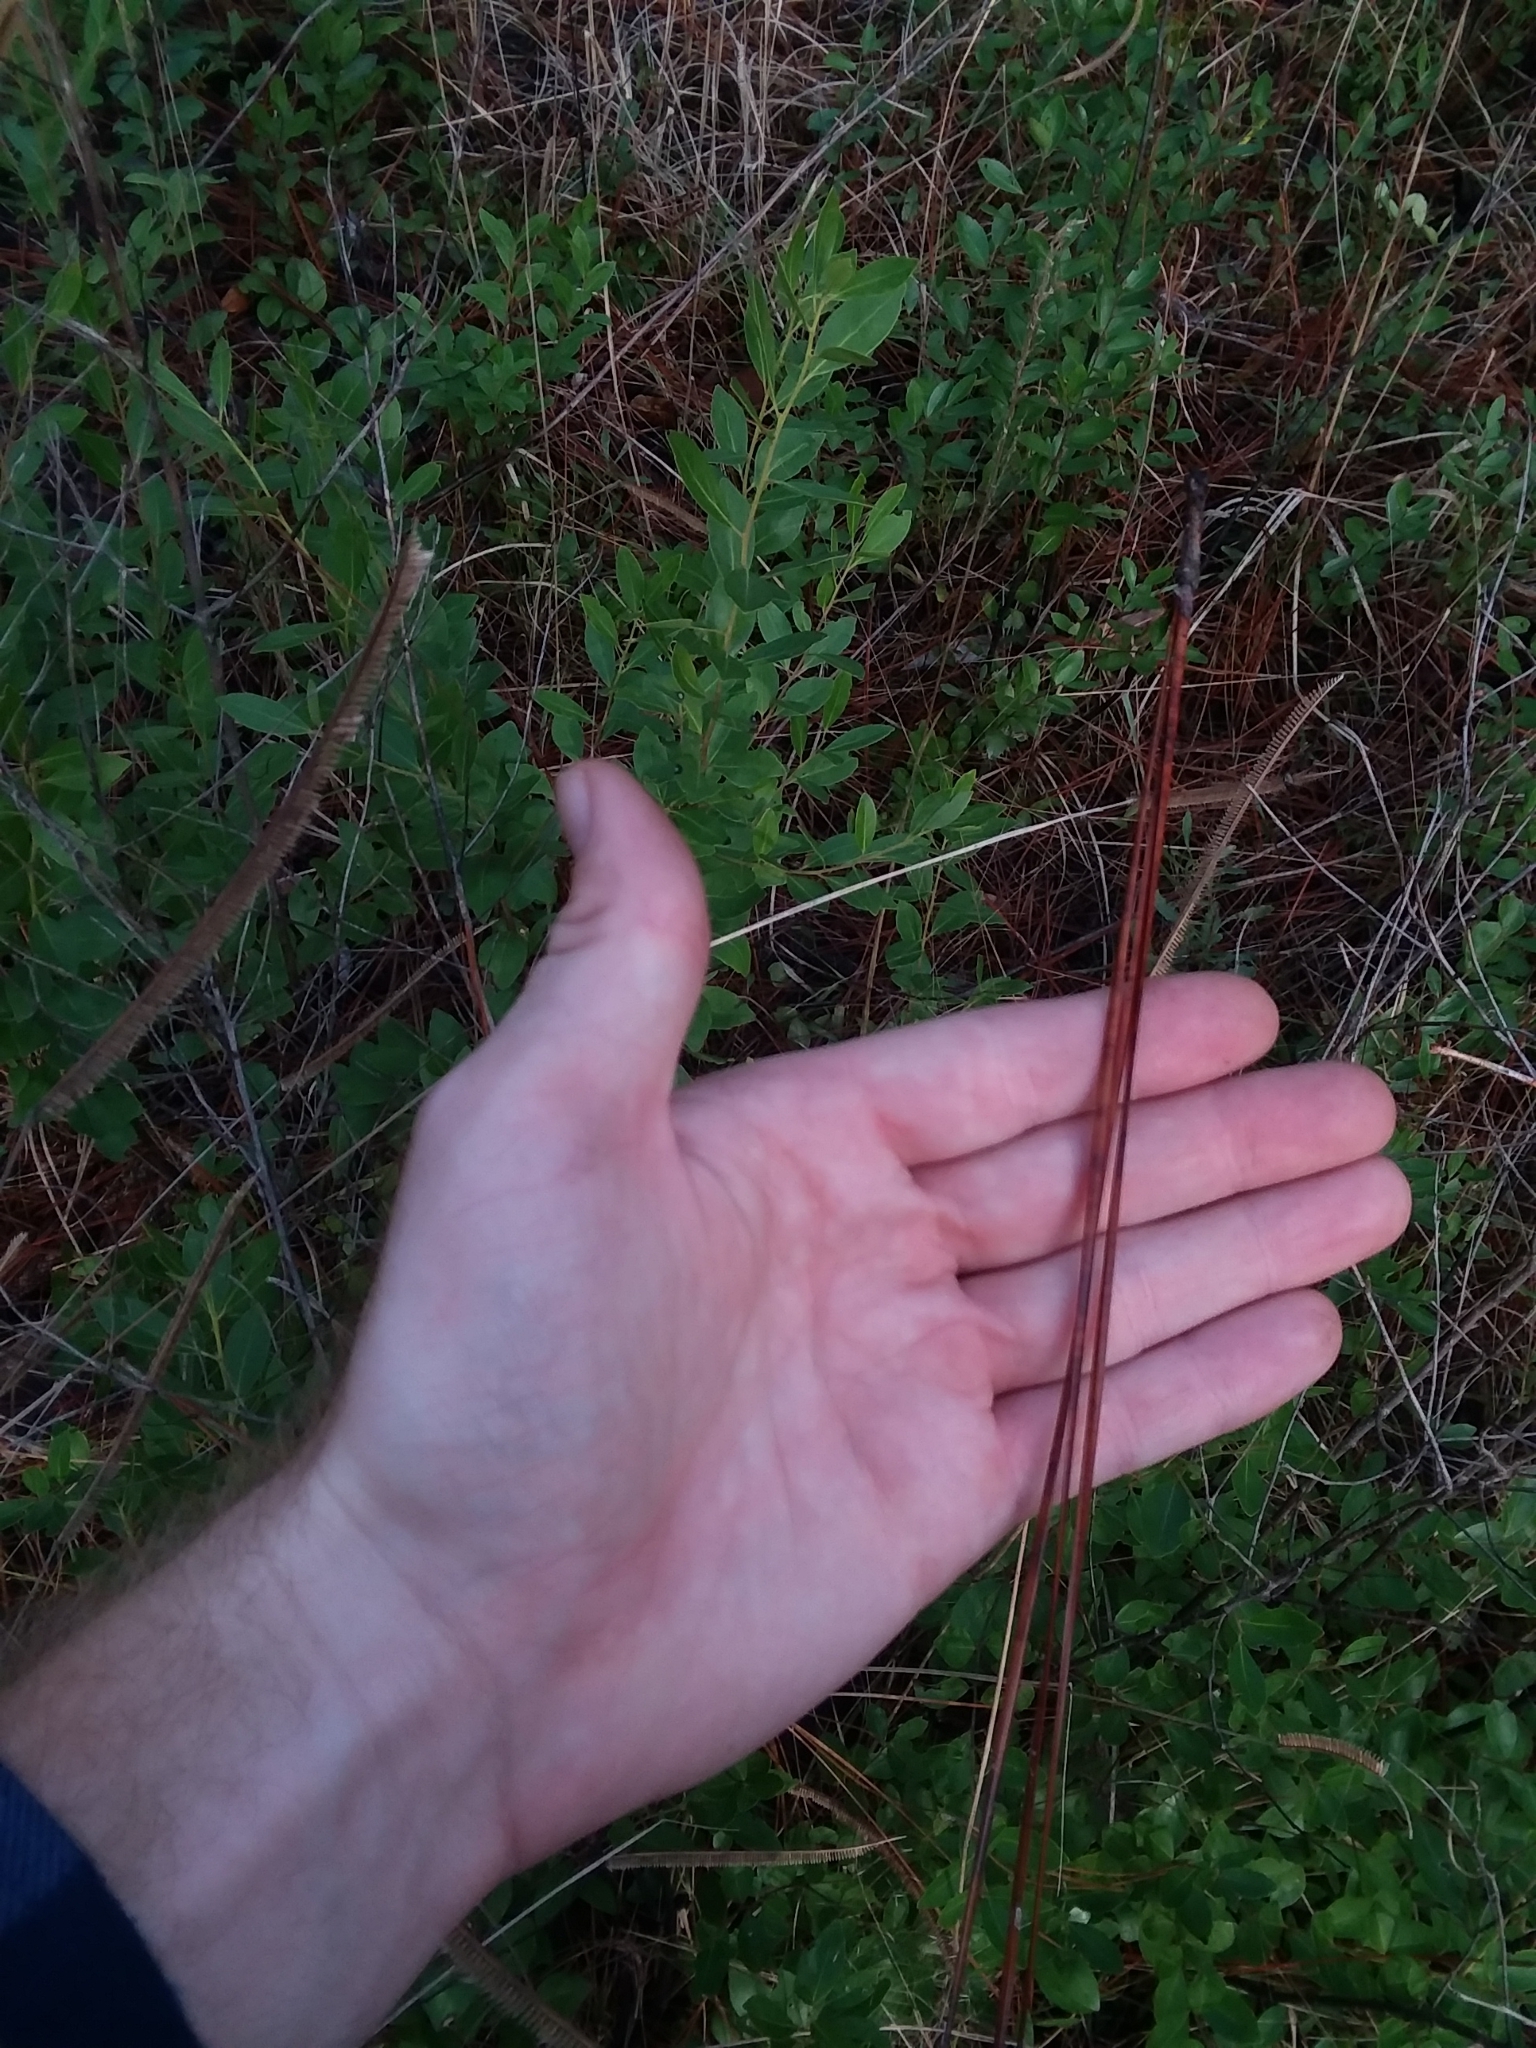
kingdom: Plantae
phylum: Tracheophyta
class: Pinopsida
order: Pinales
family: Pinaceae
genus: Pinus
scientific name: Pinus palustris
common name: Longleaf pine
